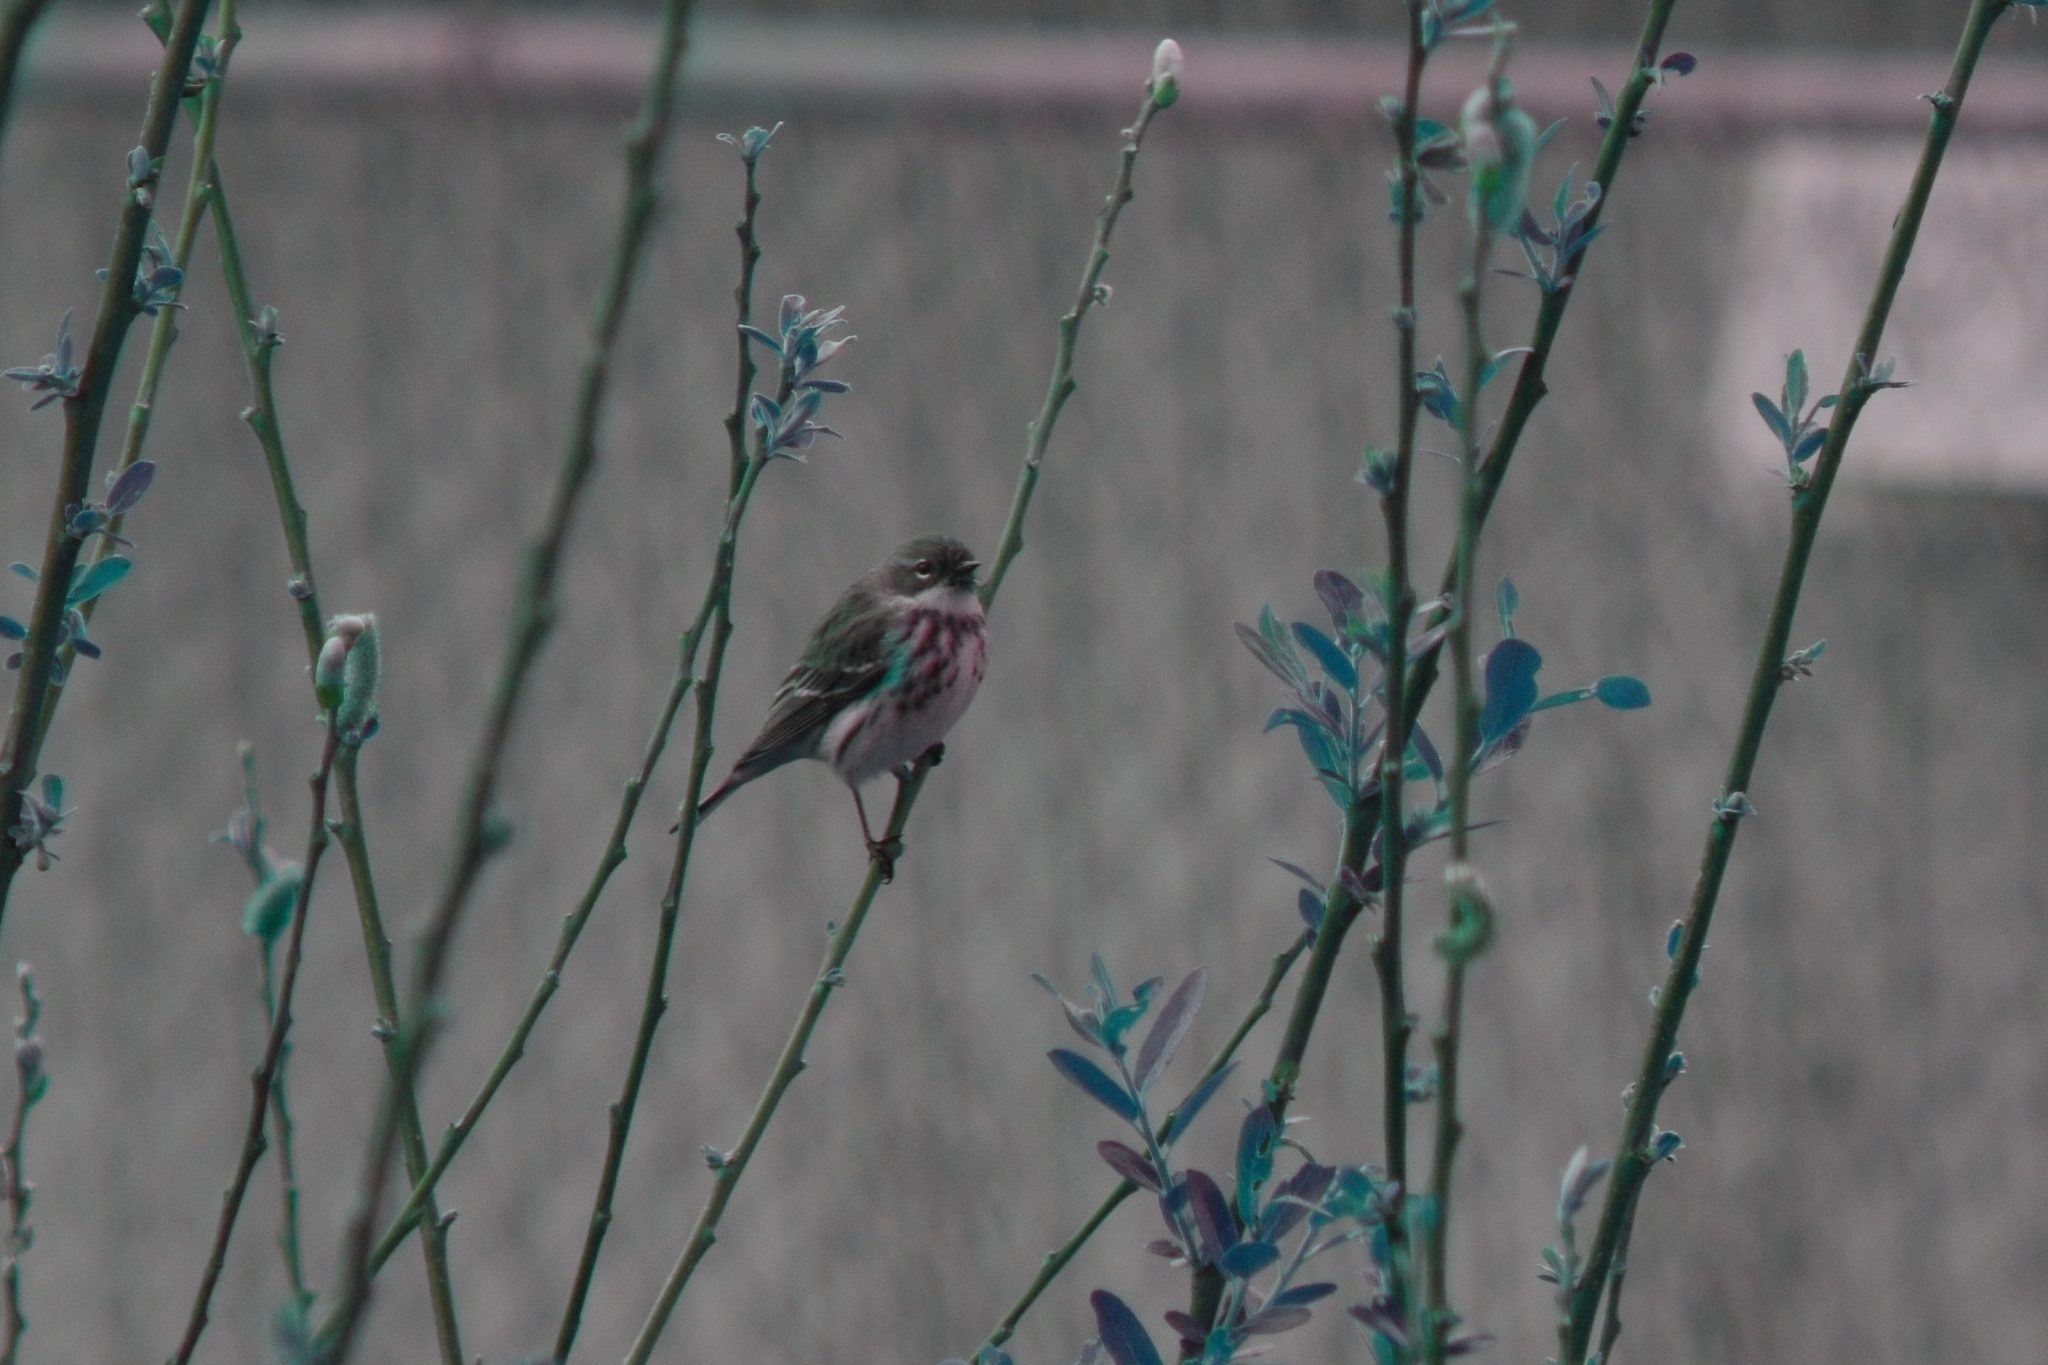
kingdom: Animalia
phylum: Chordata
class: Aves
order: Passeriformes
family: Parulidae
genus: Setophaga
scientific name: Setophaga coronata
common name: Myrtle warbler
